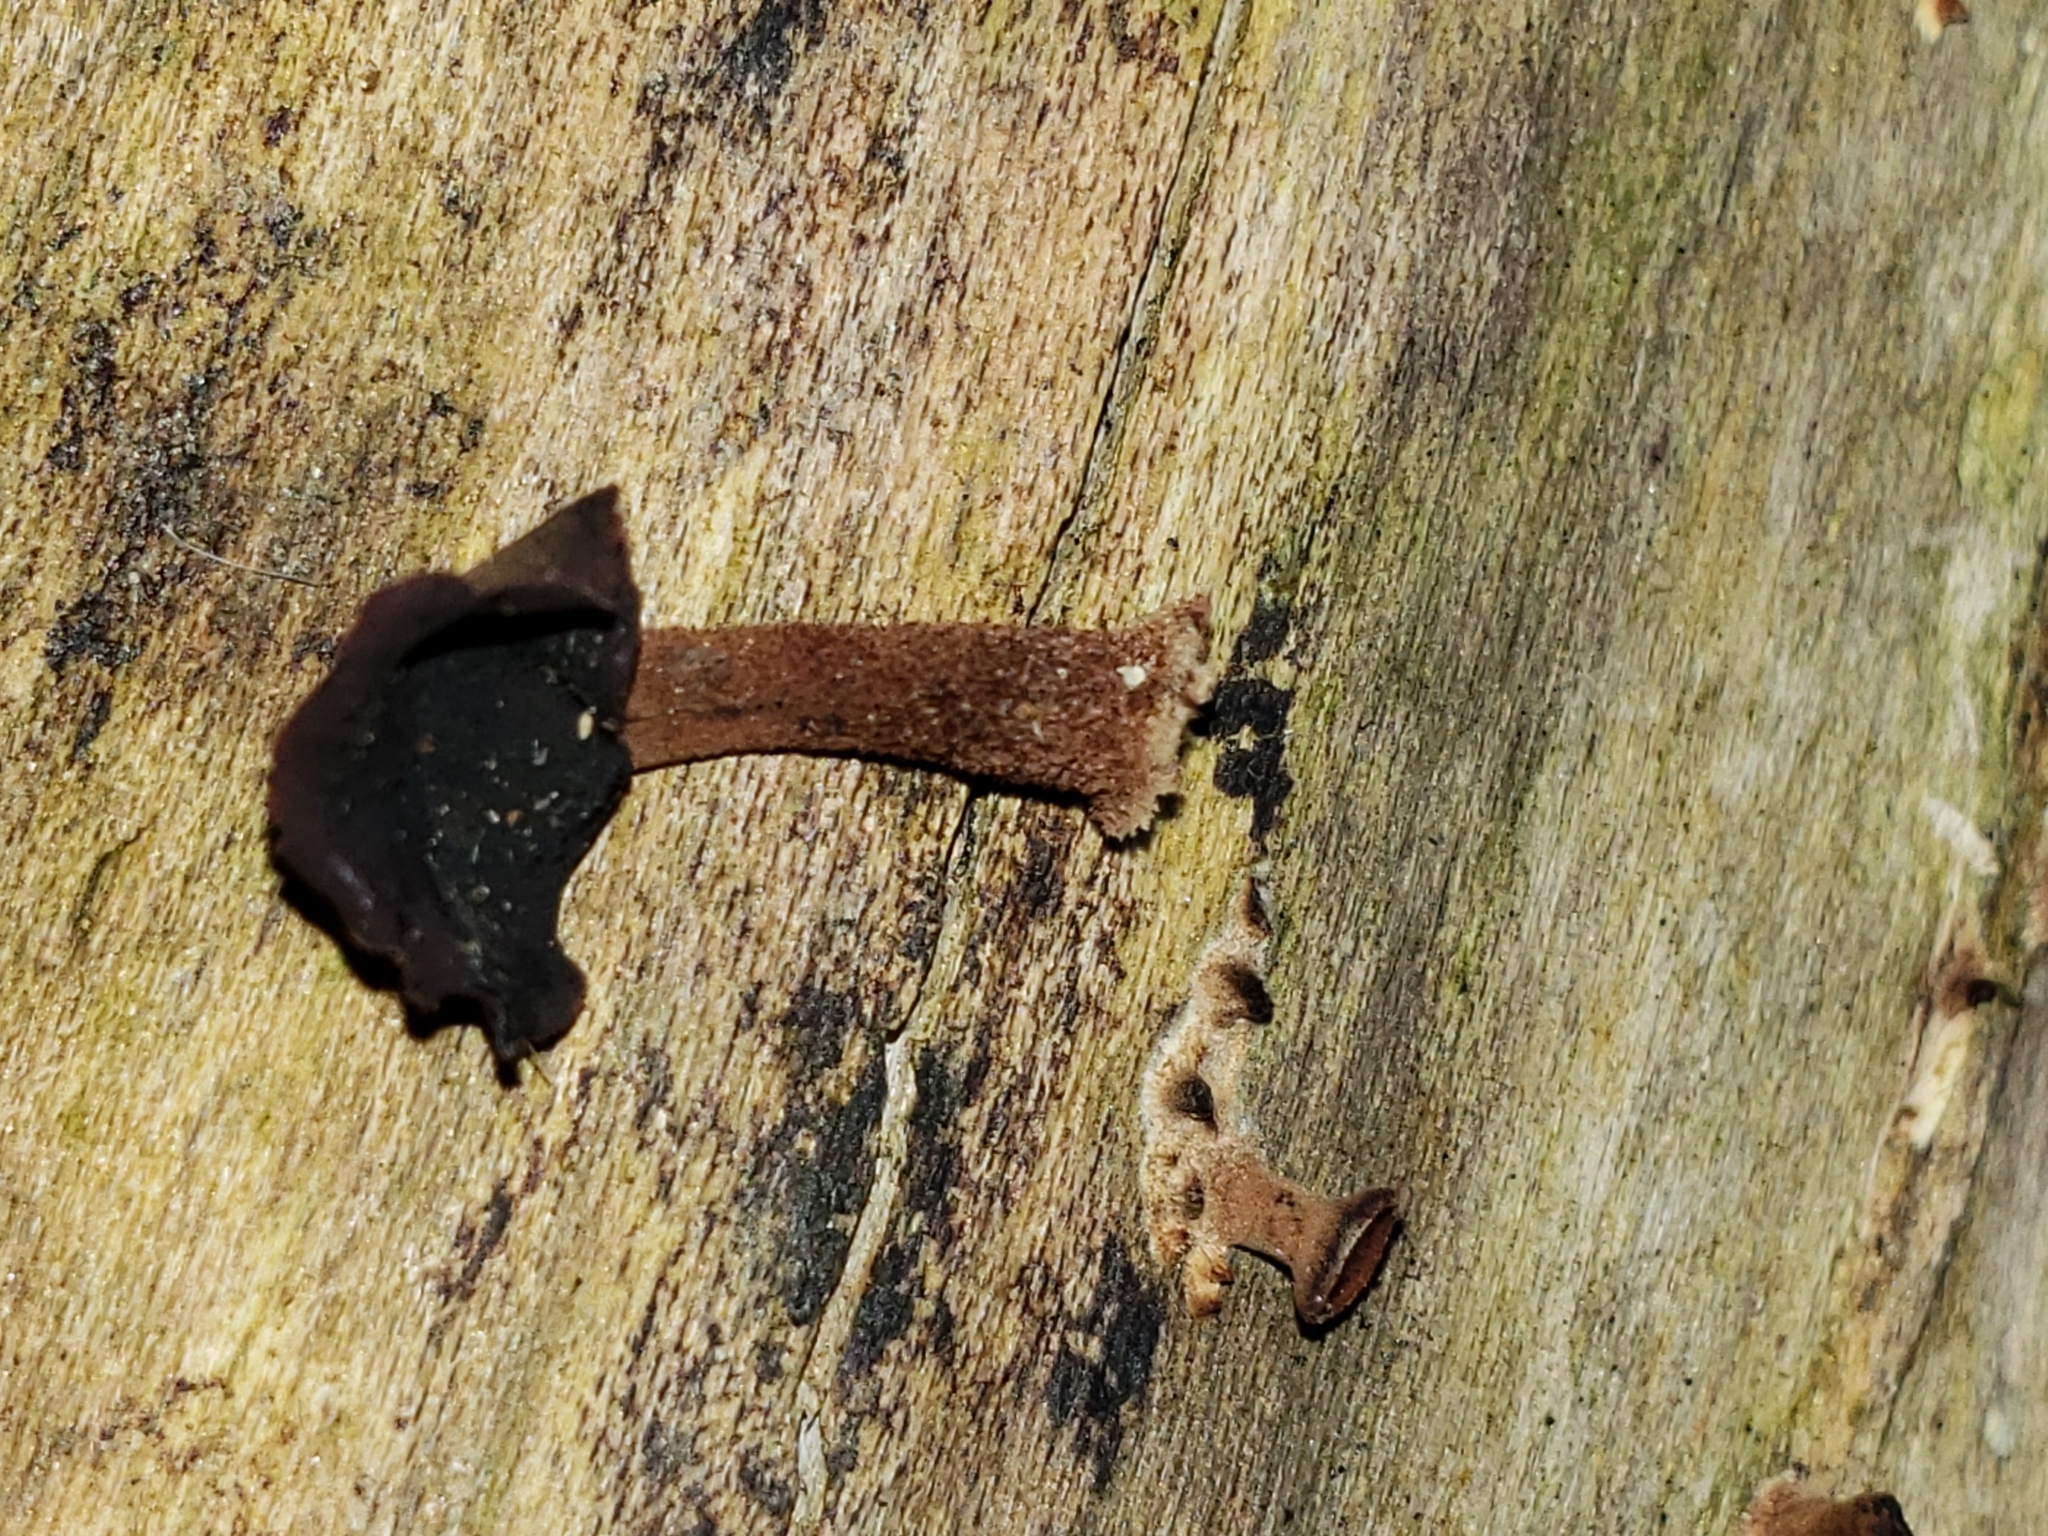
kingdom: Fungi
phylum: Basidiomycota
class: Dacrymycetes
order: Dacrymycetales
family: Dacrymycetaceae
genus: Dacryopinax
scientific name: Dacryopinax elegans
